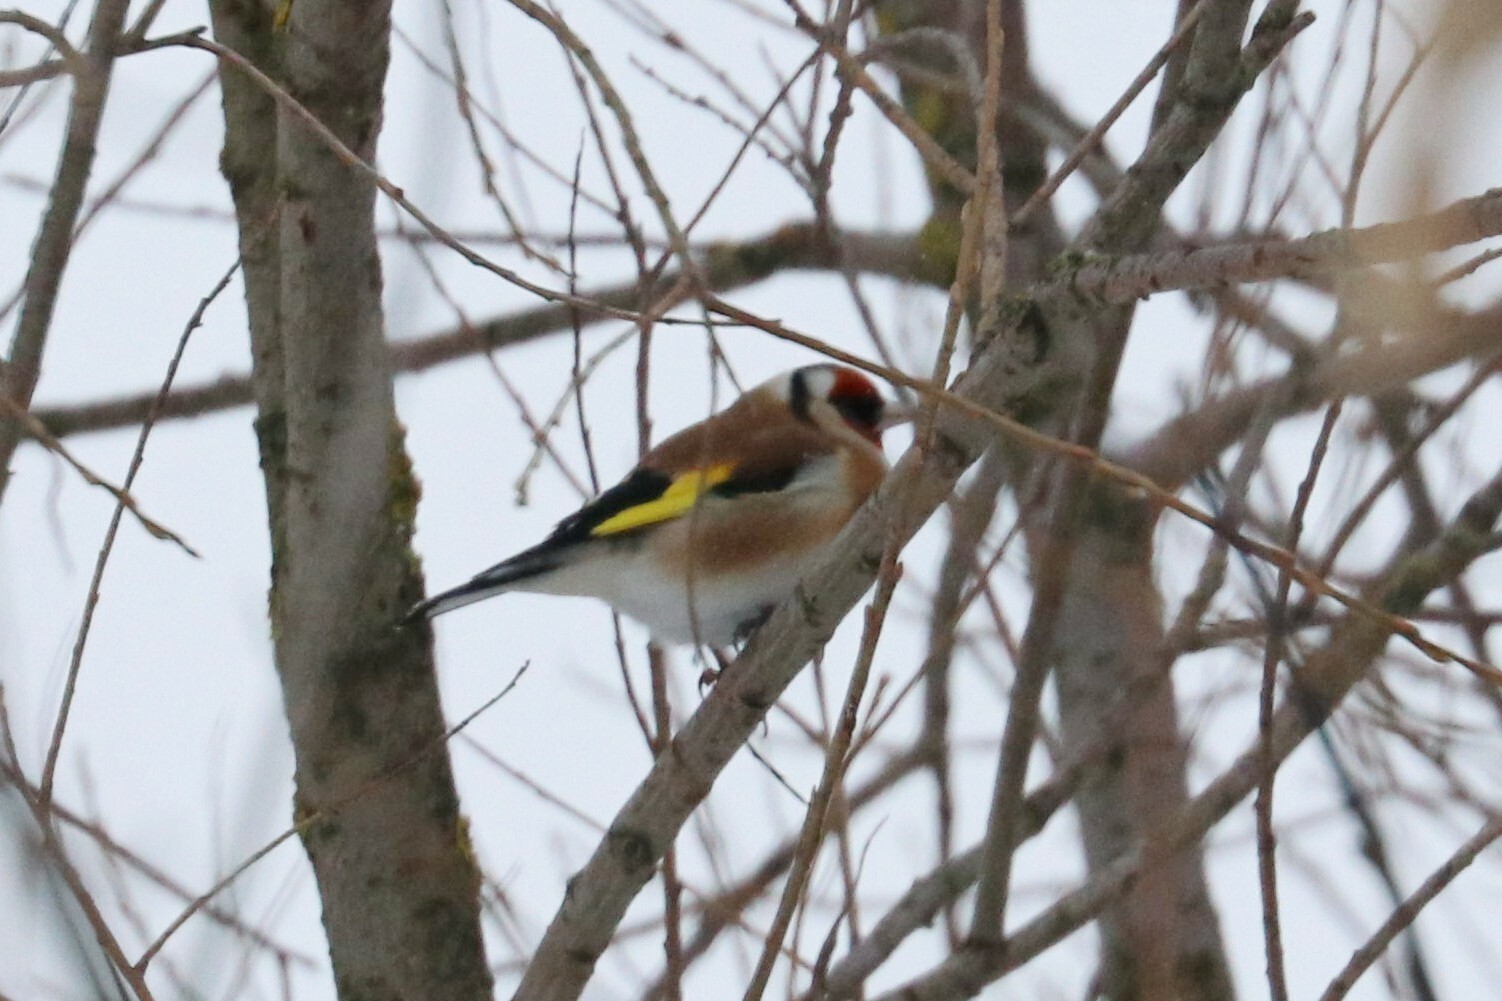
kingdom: Animalia
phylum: Chordata
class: Aves
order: Passeriformes
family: Fringillidae
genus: Carduelis
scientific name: Carduelis carduelis
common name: European goldfinch
